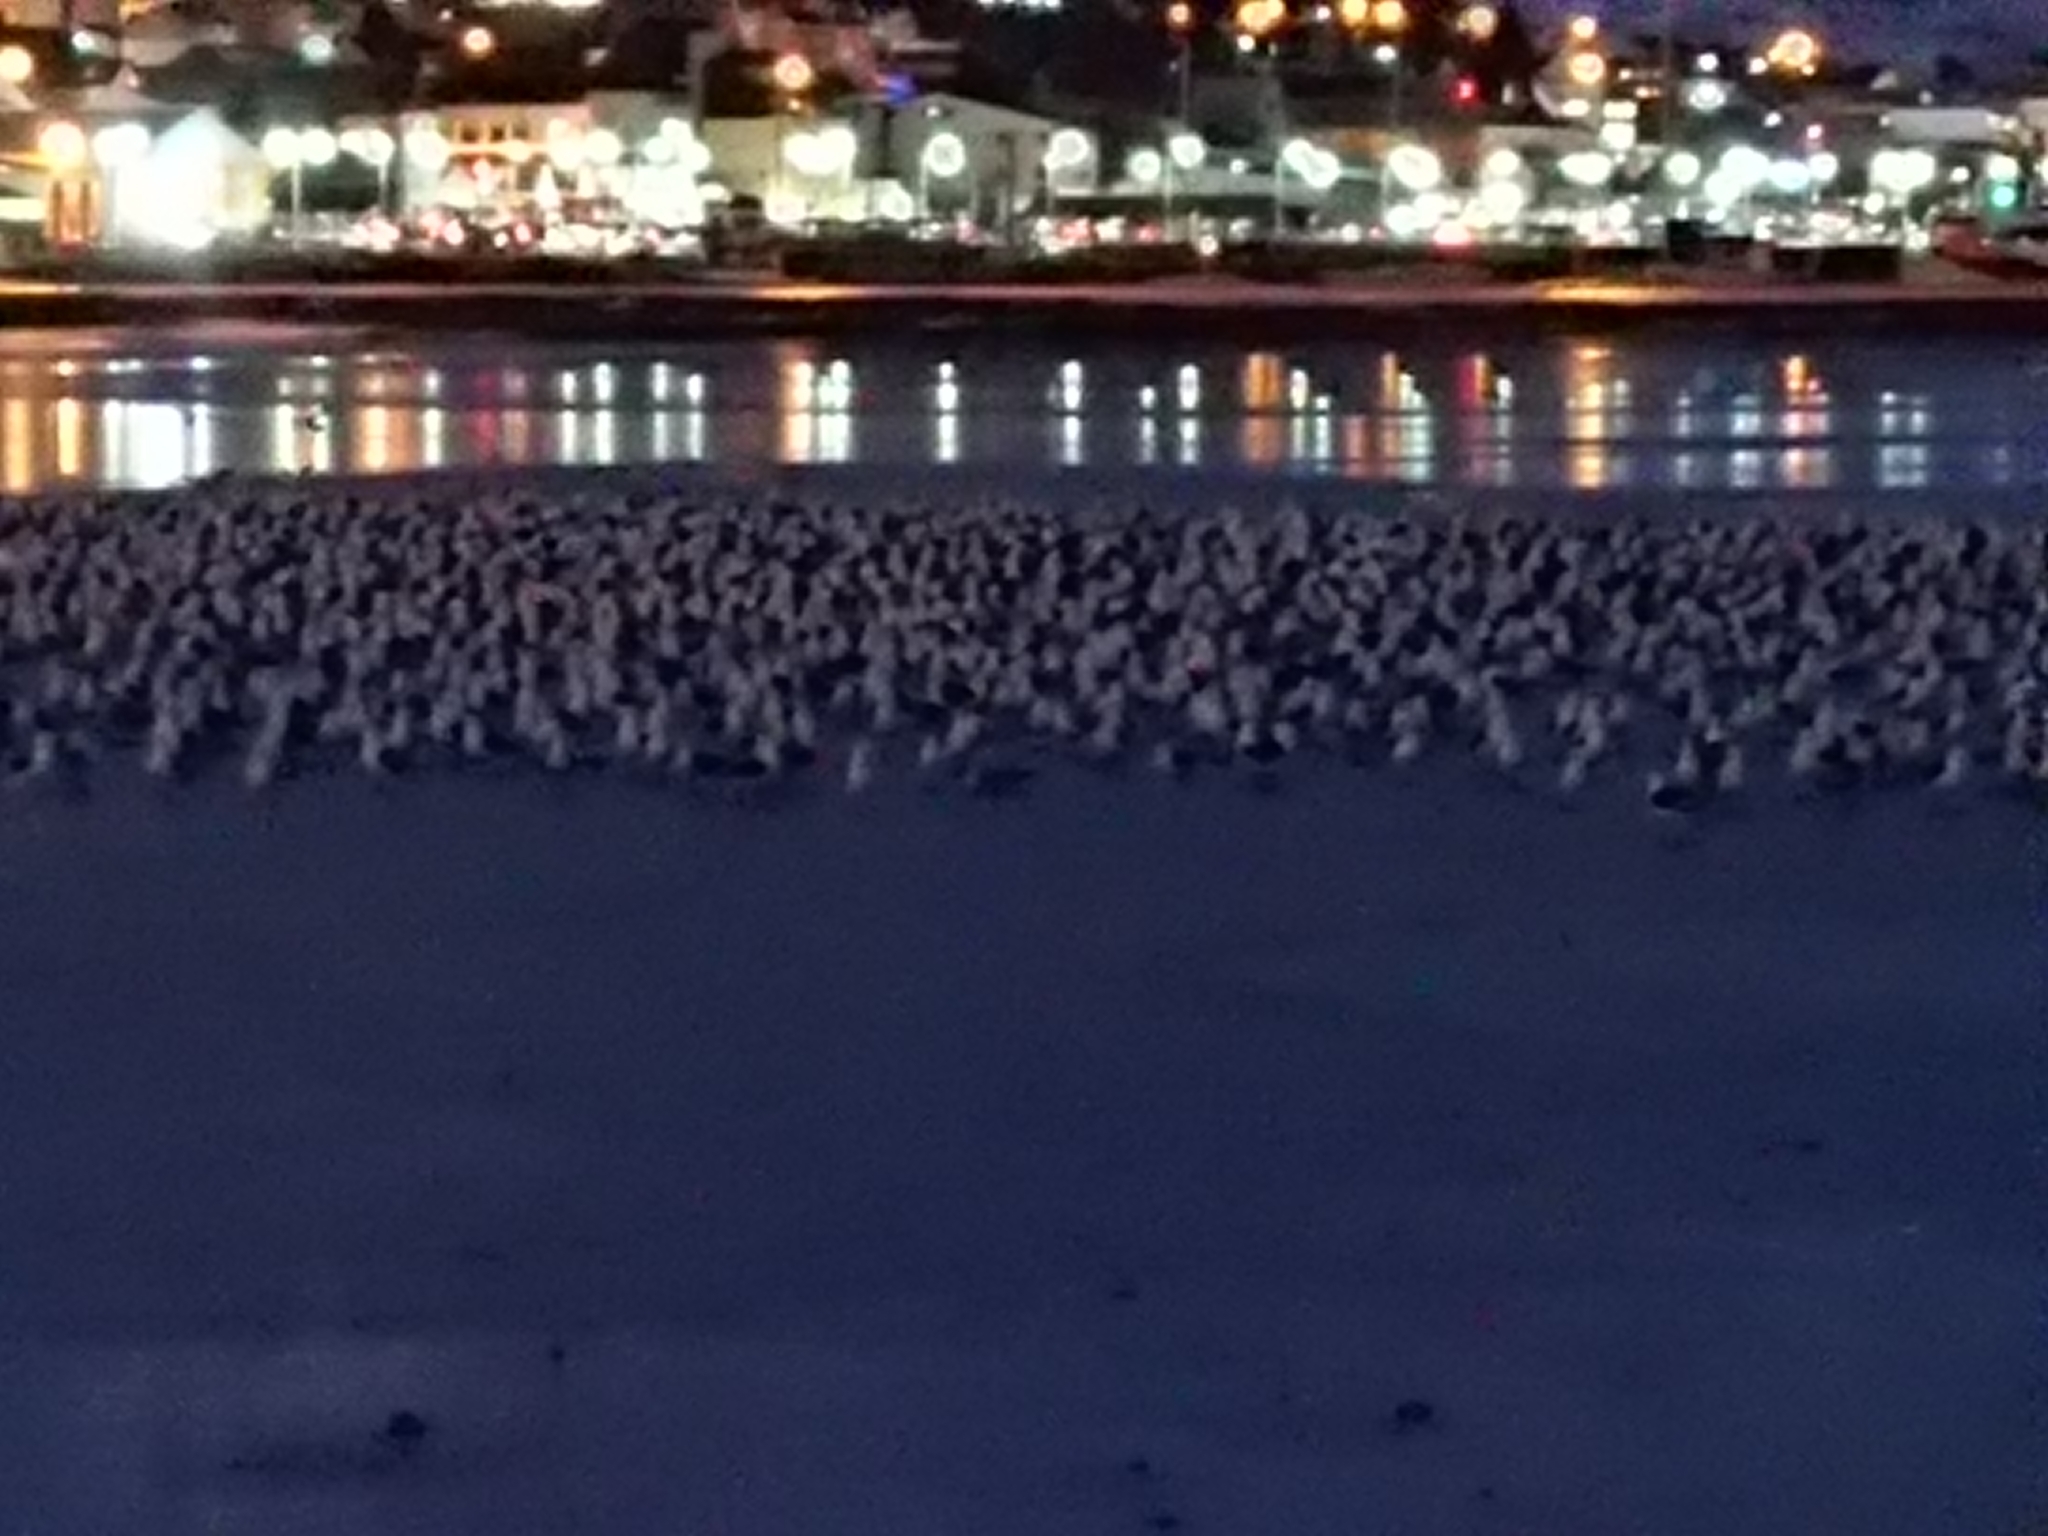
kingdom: Animalia
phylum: Chordata
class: Aves
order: Charadriiformes
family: Laridae
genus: Larus
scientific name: Larus dominicanus
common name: Kelp gull
